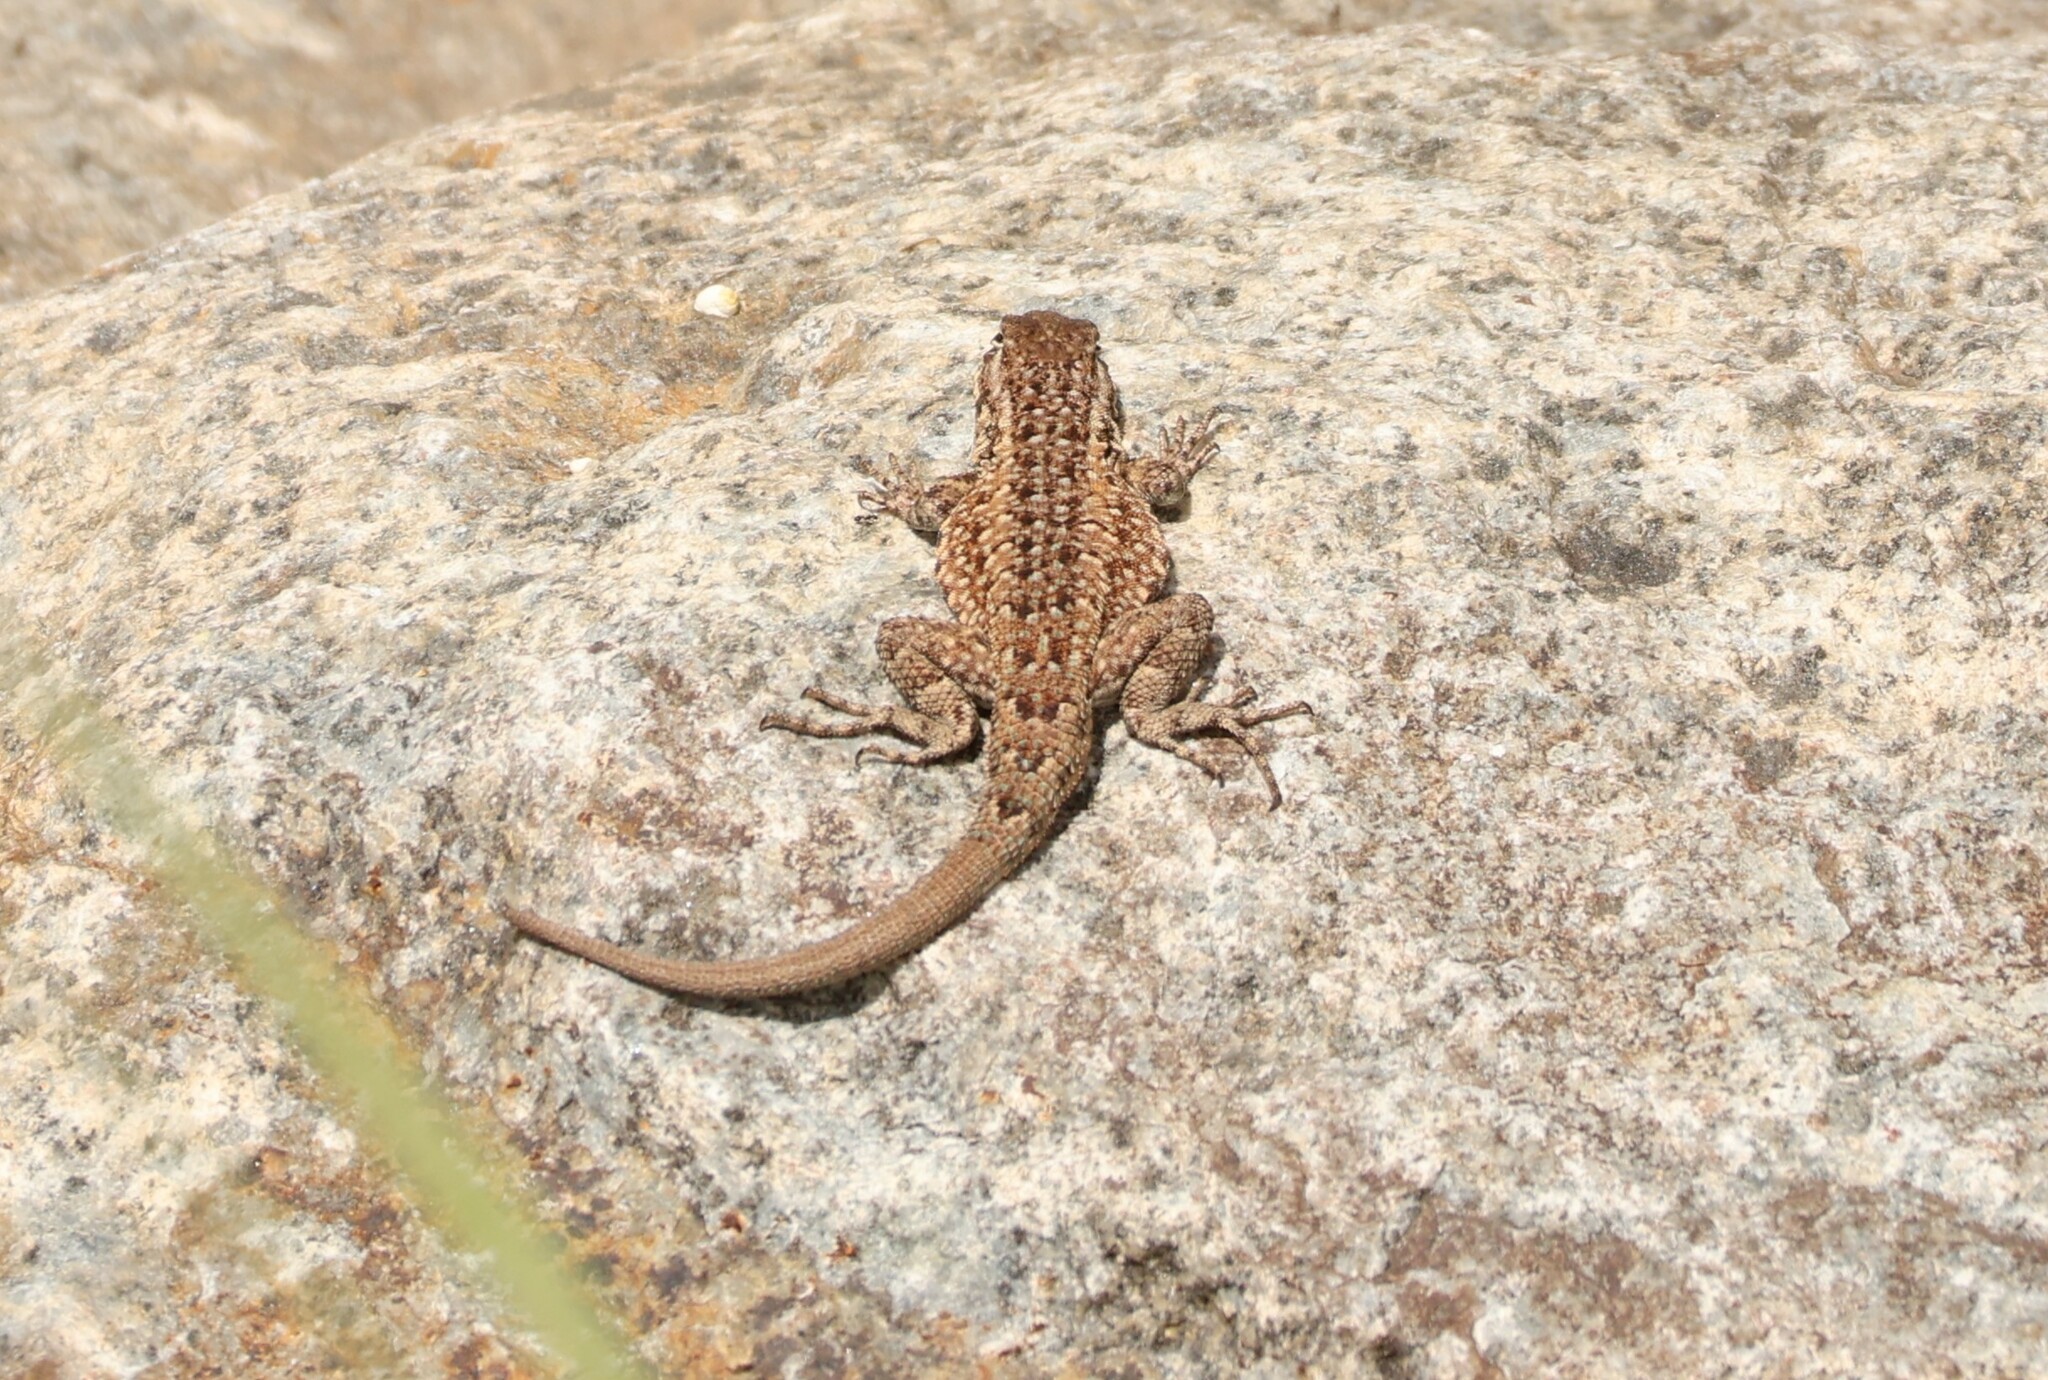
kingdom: Animalia
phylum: Chordata
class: Squamata
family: Phrynosomatidae
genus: Uta
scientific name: Uta stansburiana
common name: Side-blotched lizard
